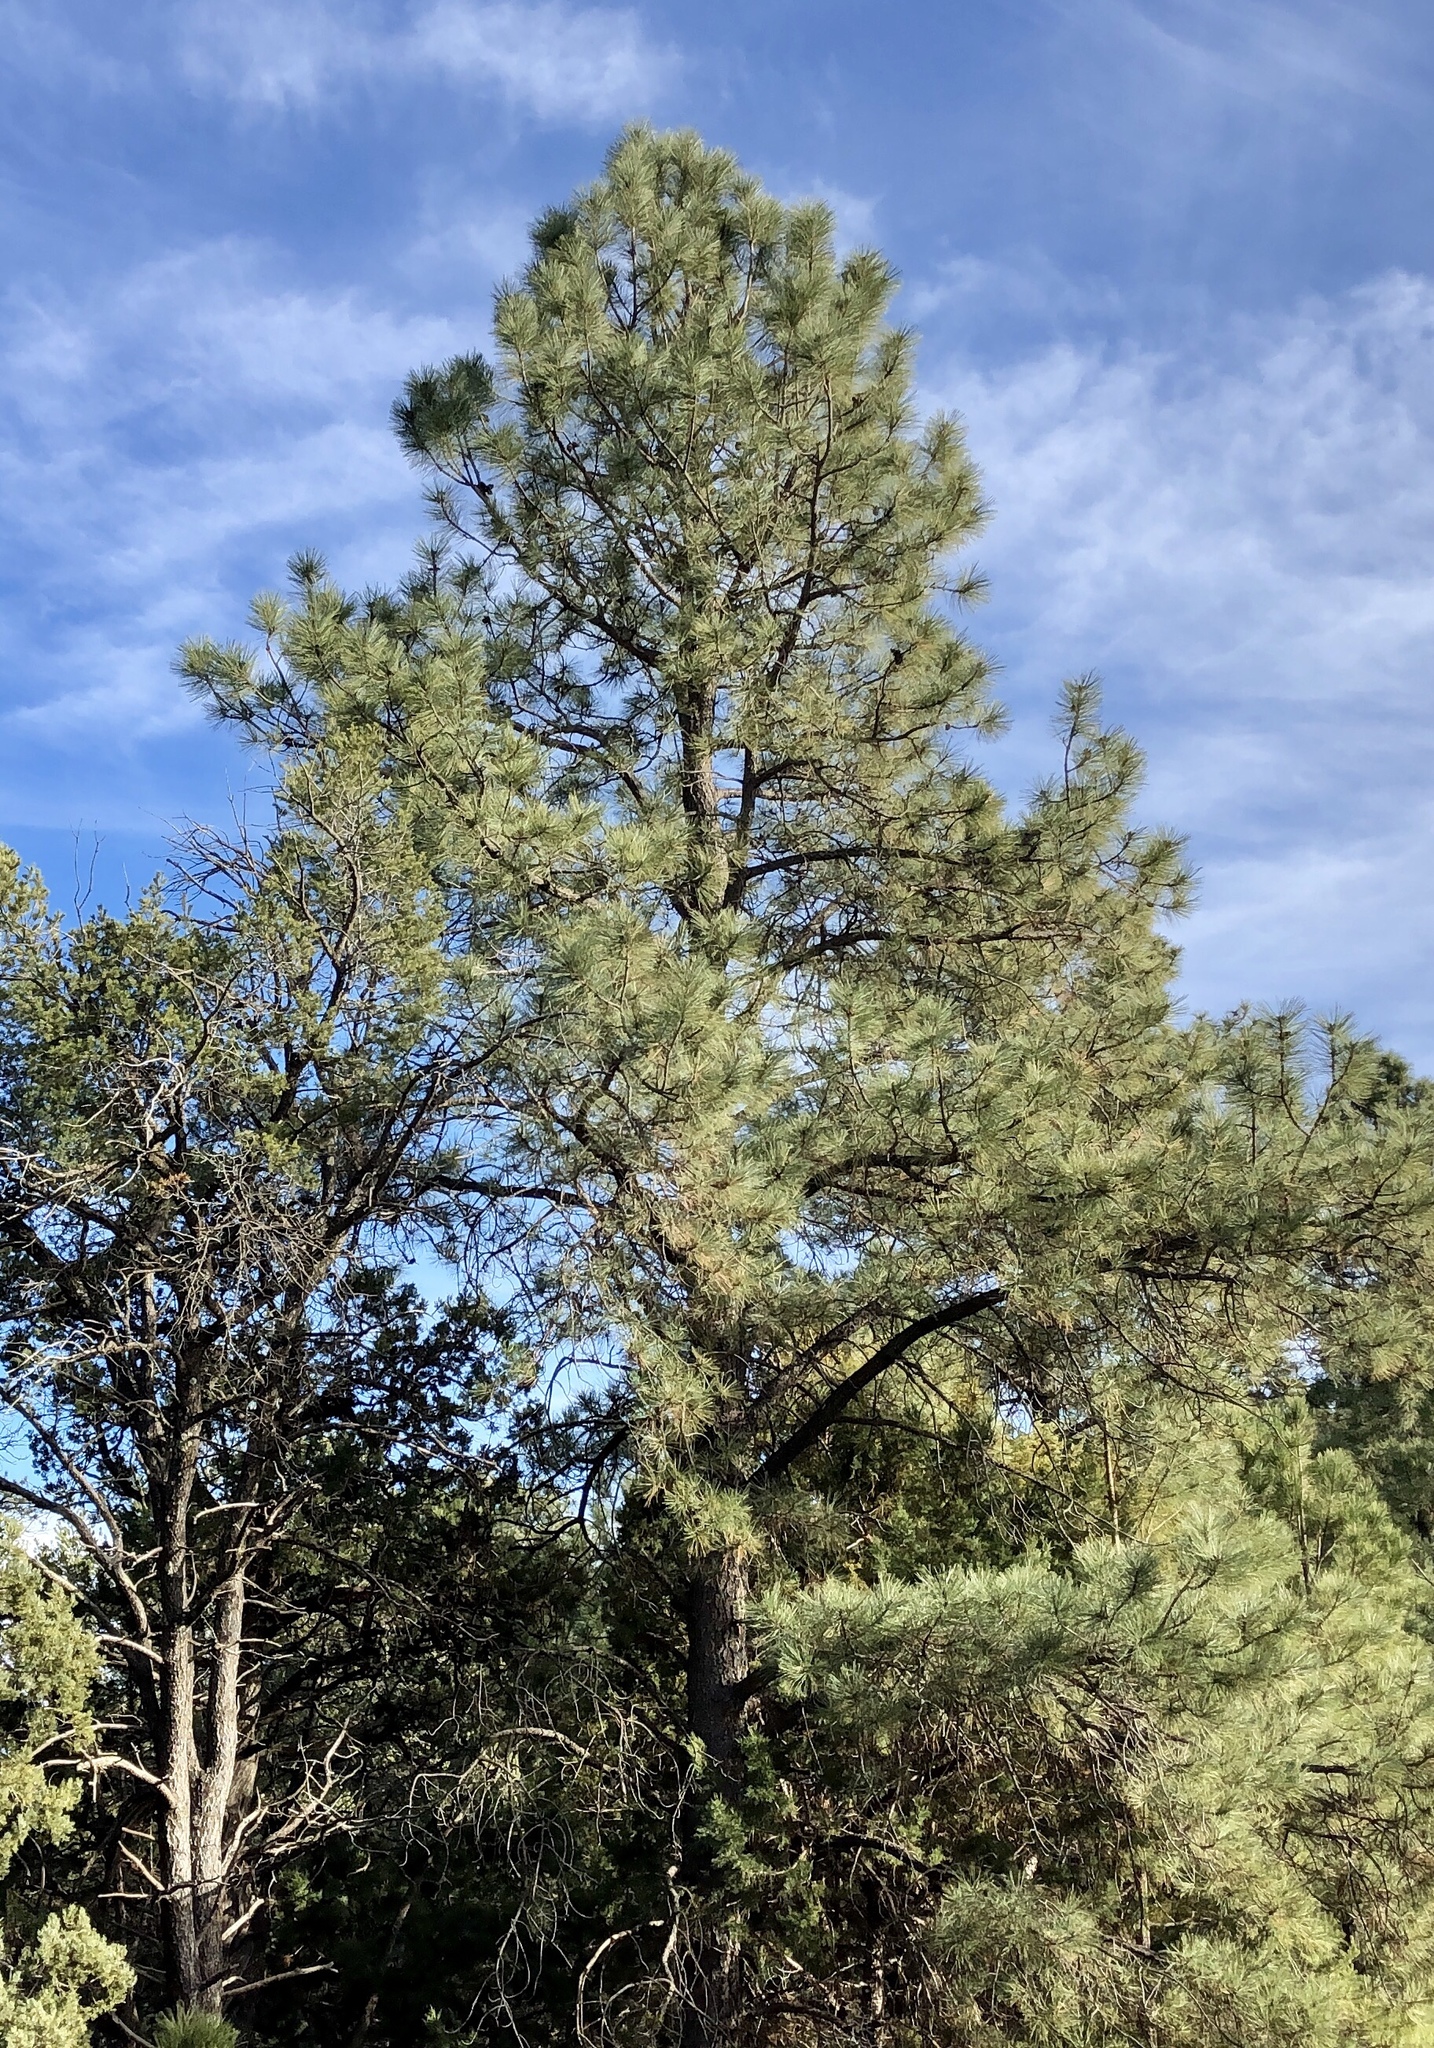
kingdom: Plantae
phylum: Tracheophyta
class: Pinopsida
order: Pinales
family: Pinaceae
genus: Pinus
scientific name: Pinus ponderosa
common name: Western yellow-pine
